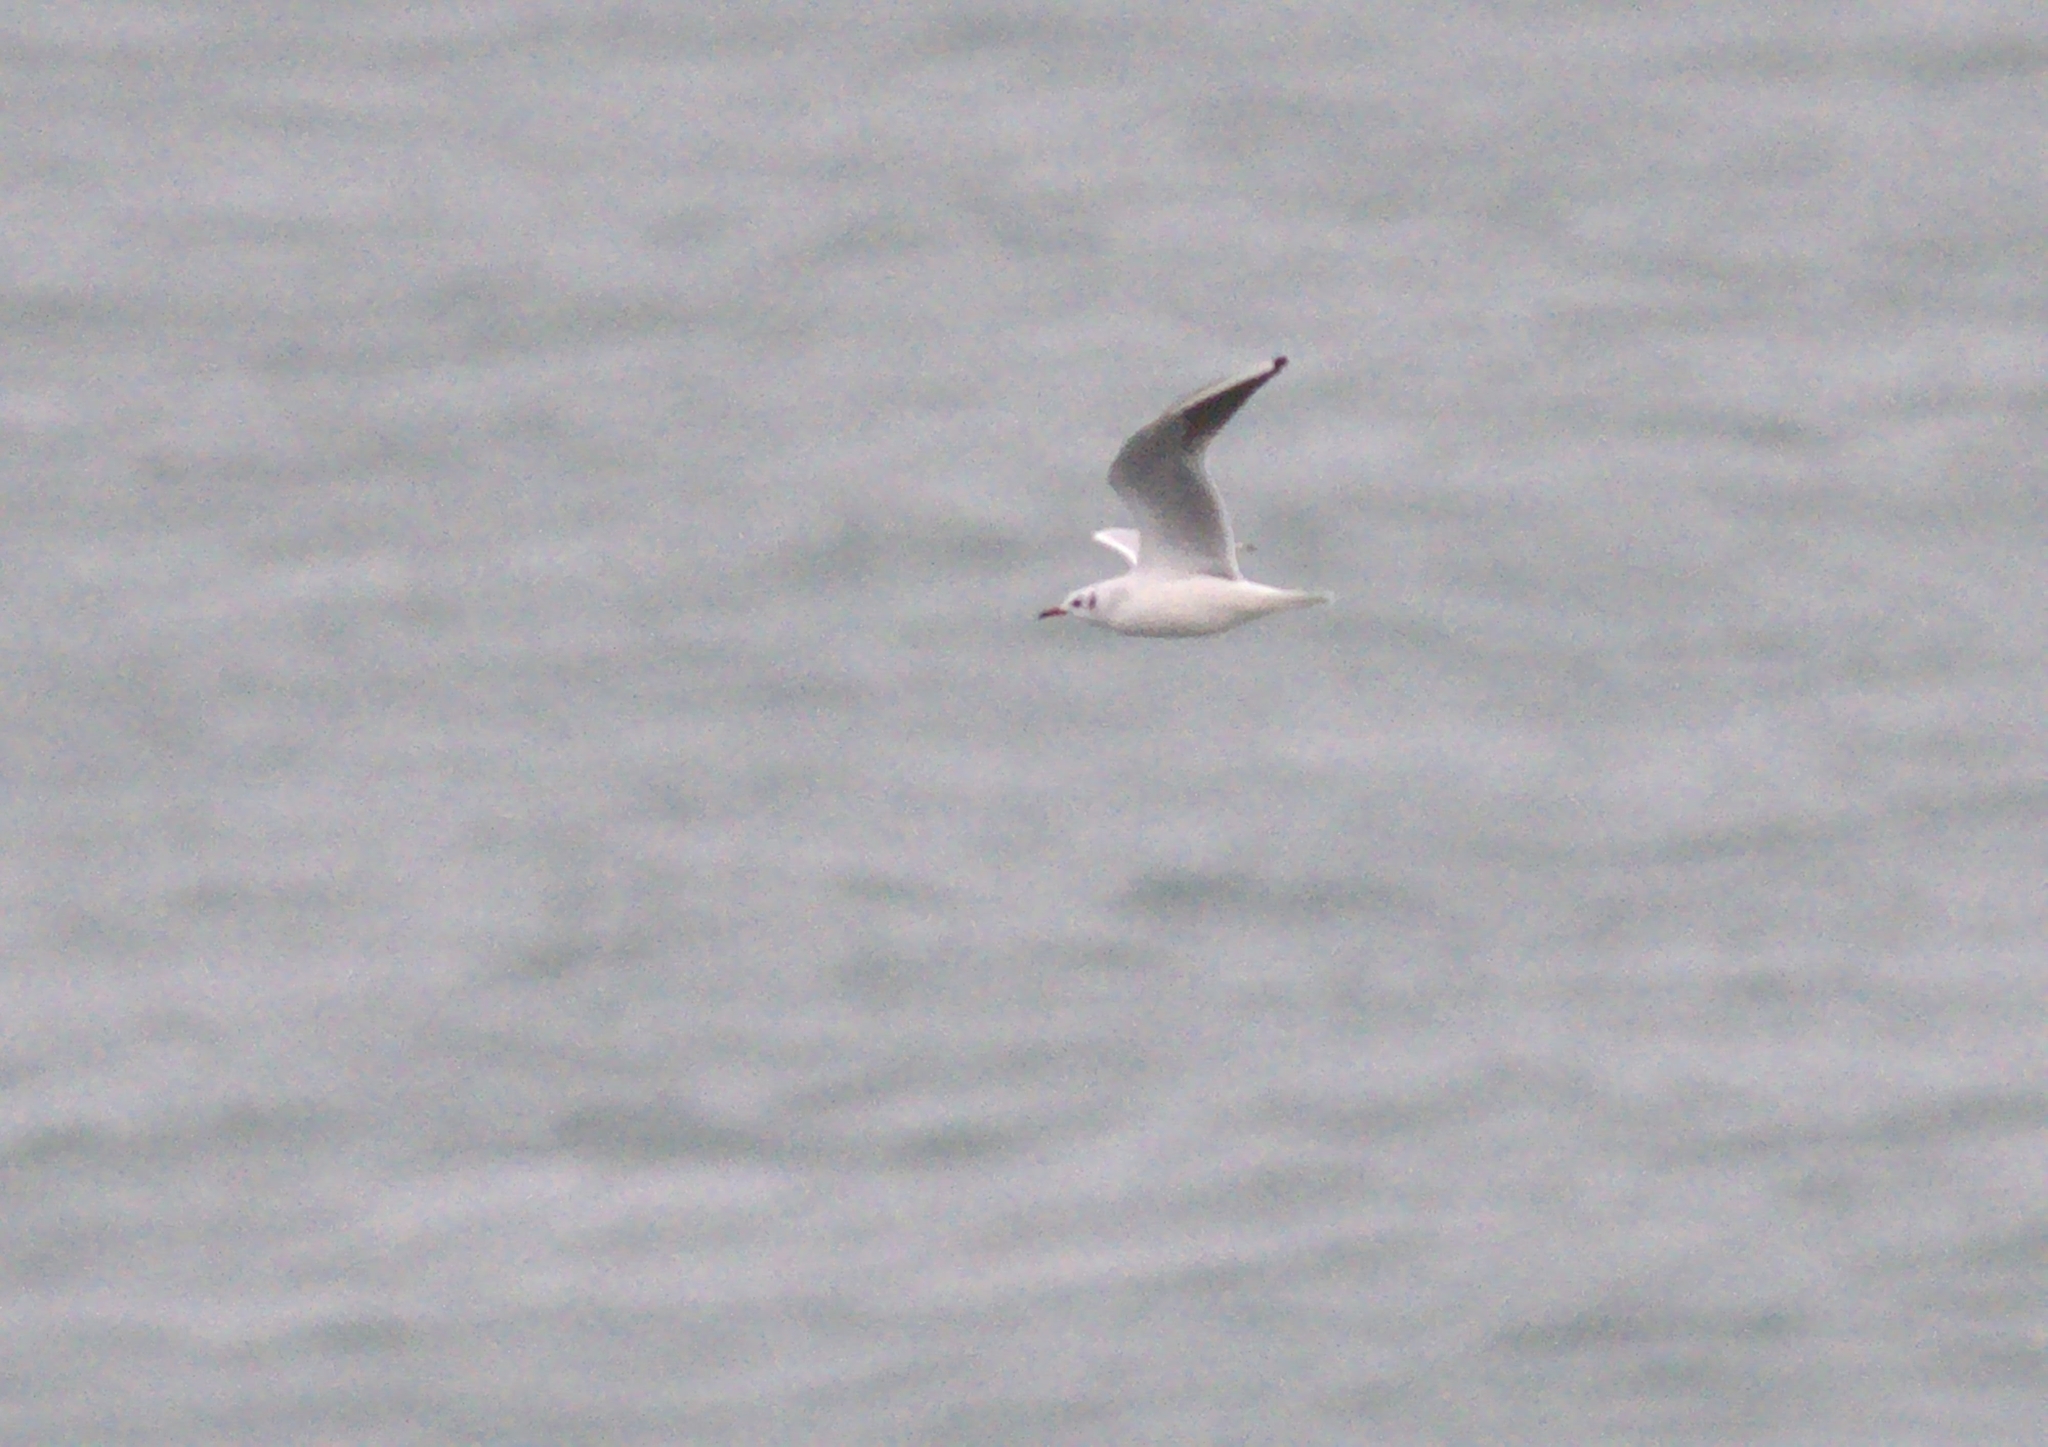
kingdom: Animalia
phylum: Chordata
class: Aves
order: Charadriiformes
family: Laridae
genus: Chroicocephalus
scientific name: Chroicocephalus ridibundus
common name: Black-headed gull
